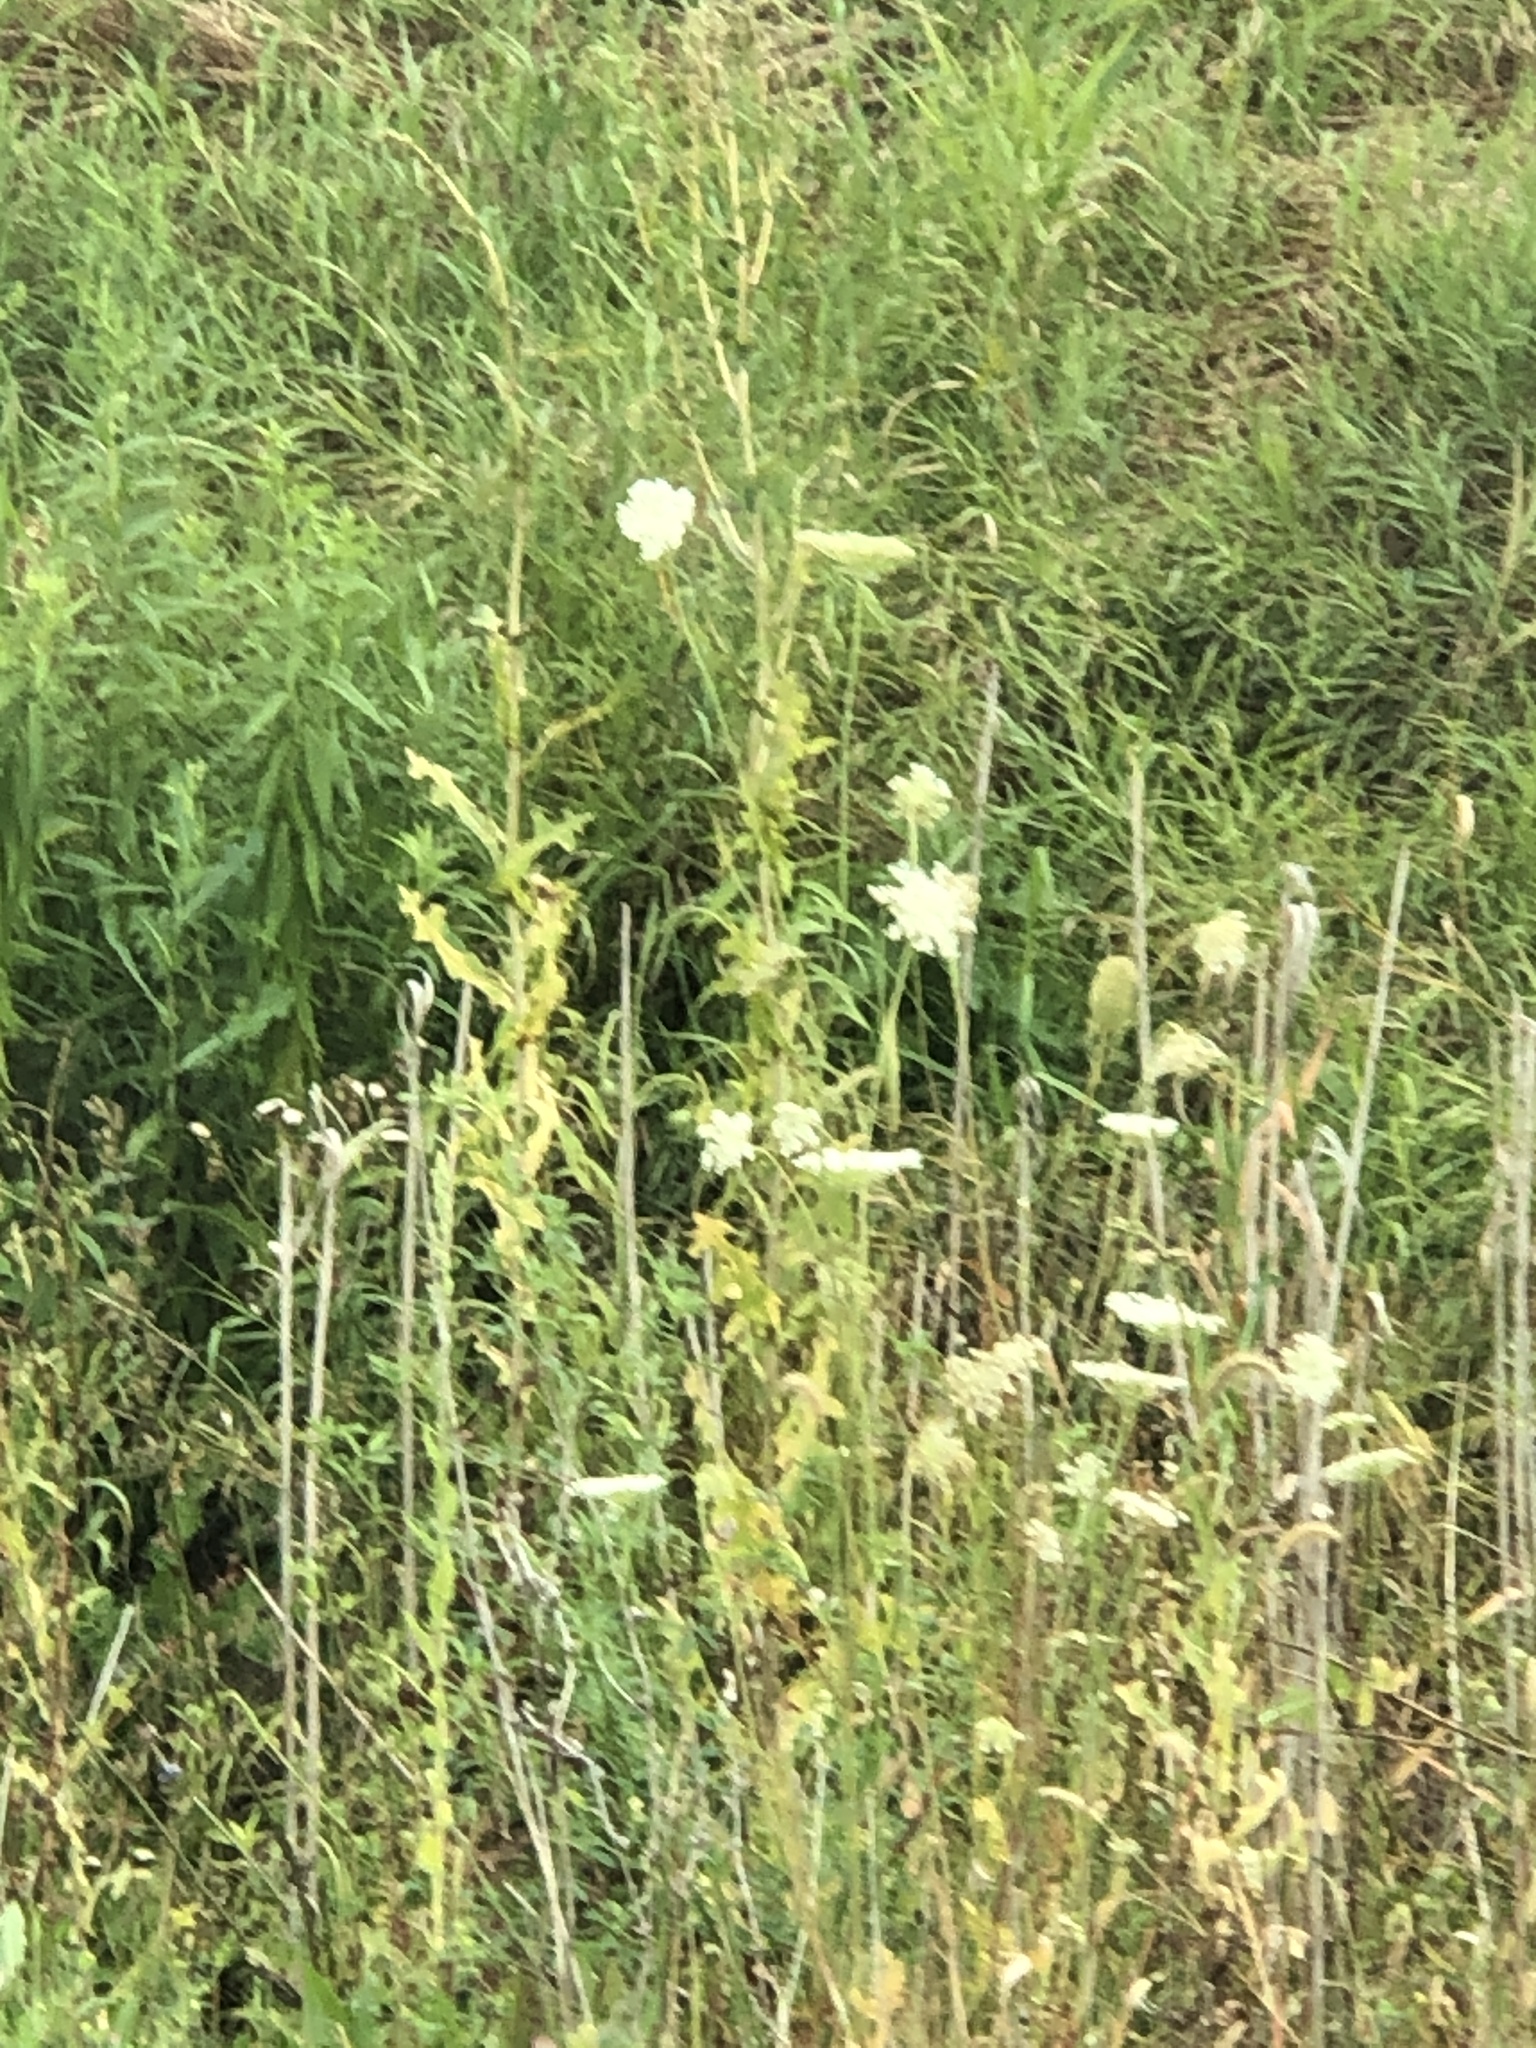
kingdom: Plantae
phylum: Tracheophyta
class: Magnoliopsida
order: Apiales
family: Apiaceae
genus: Daucus
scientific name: Daucus carota
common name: Wild carrot
